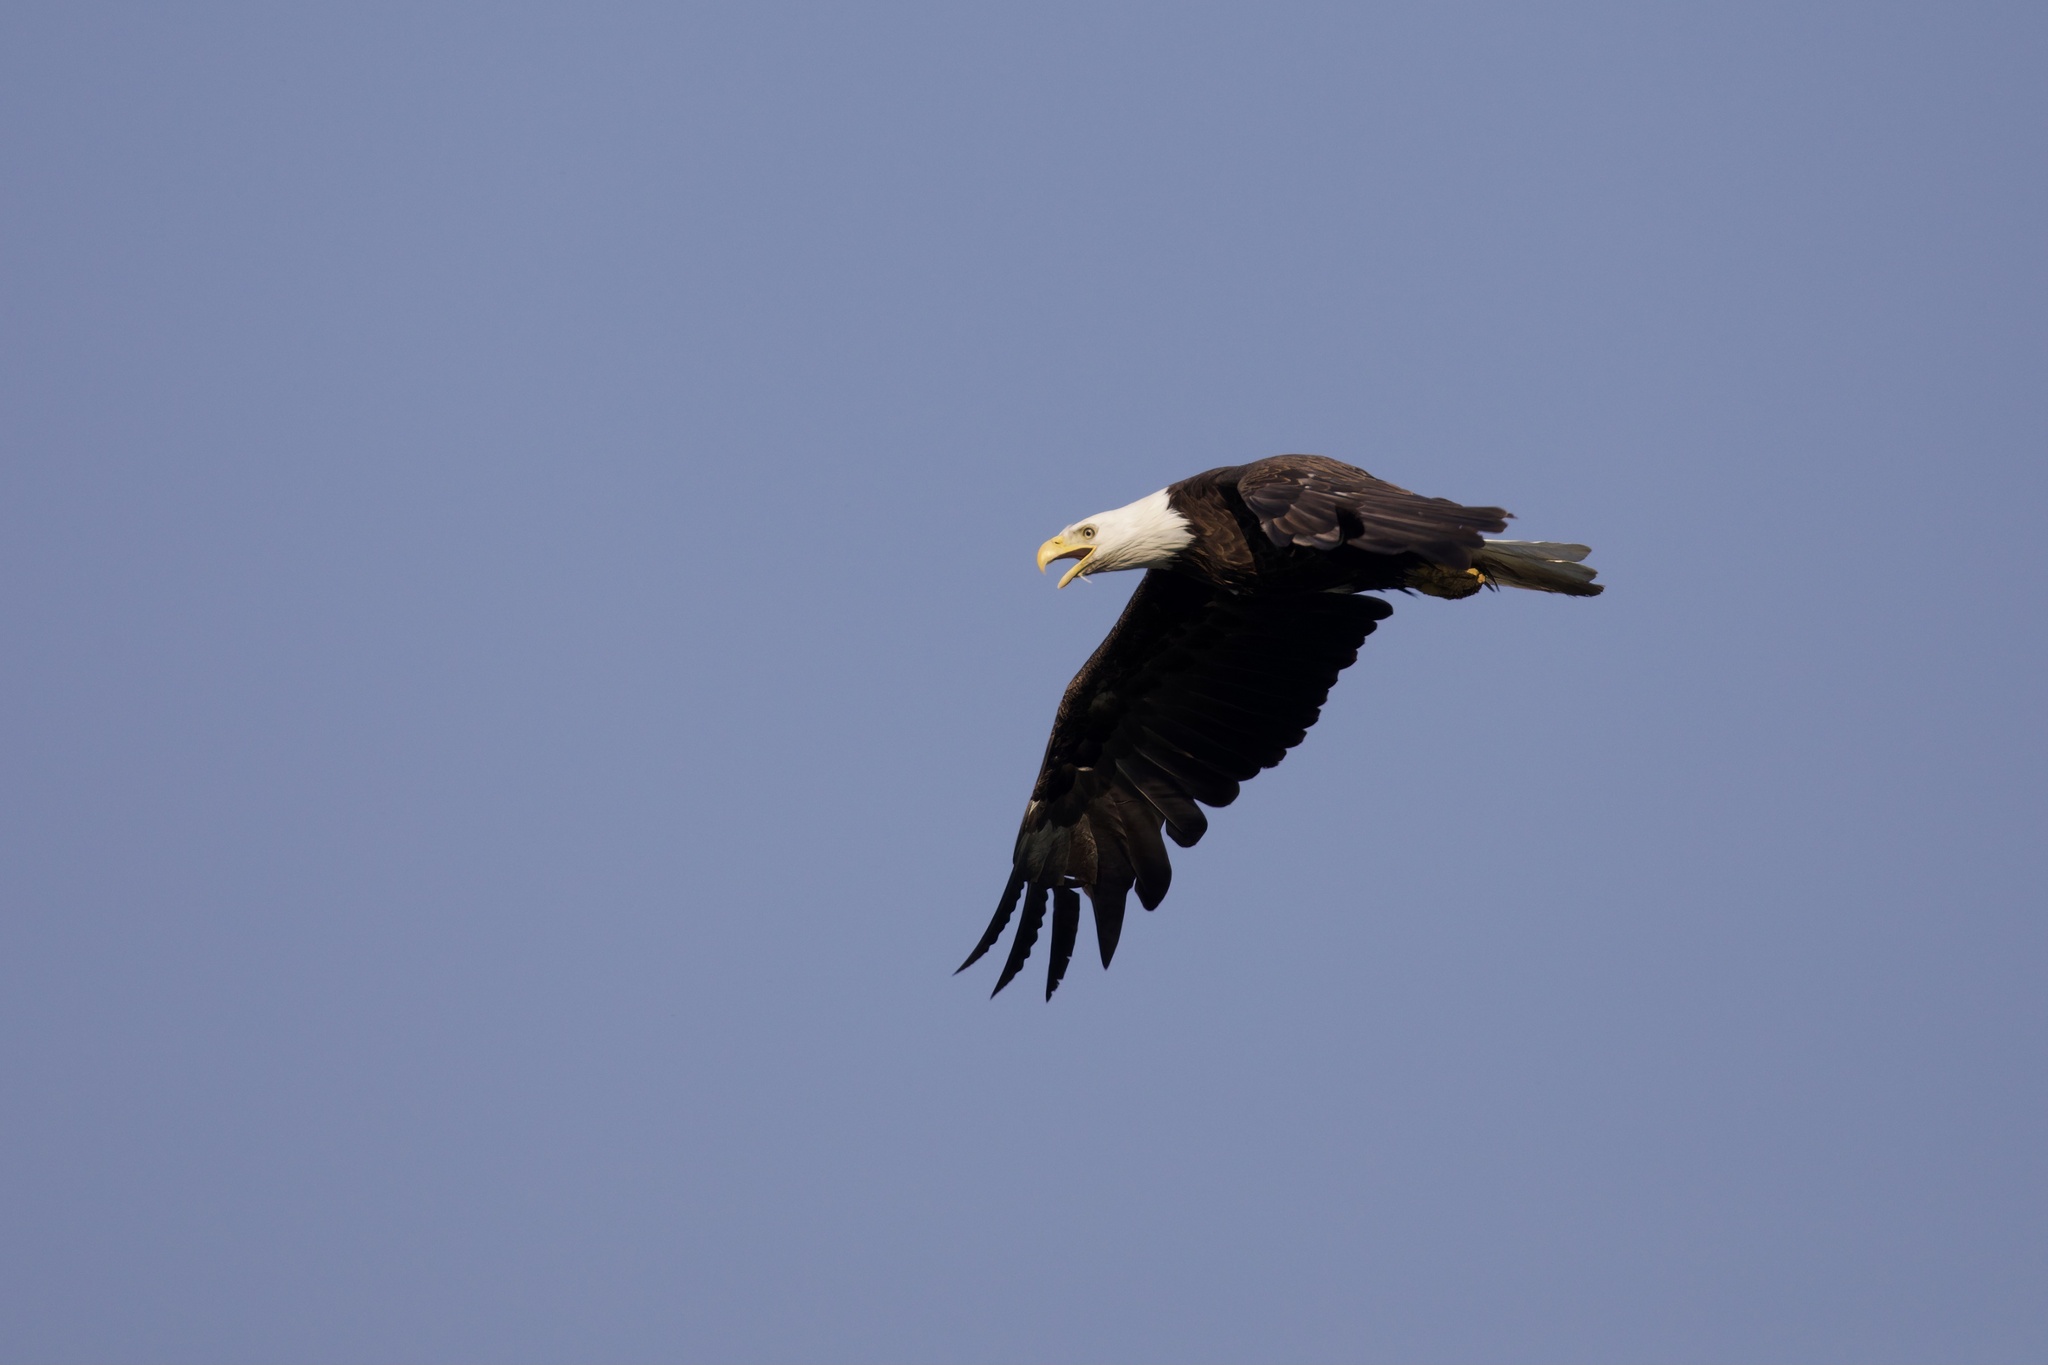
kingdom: Animalia
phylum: Chordata
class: Aves
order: Accipitriformes
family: Accipitridae
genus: Haliaeetus
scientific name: Haliaeetus leucocephalus
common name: Bald eagle
